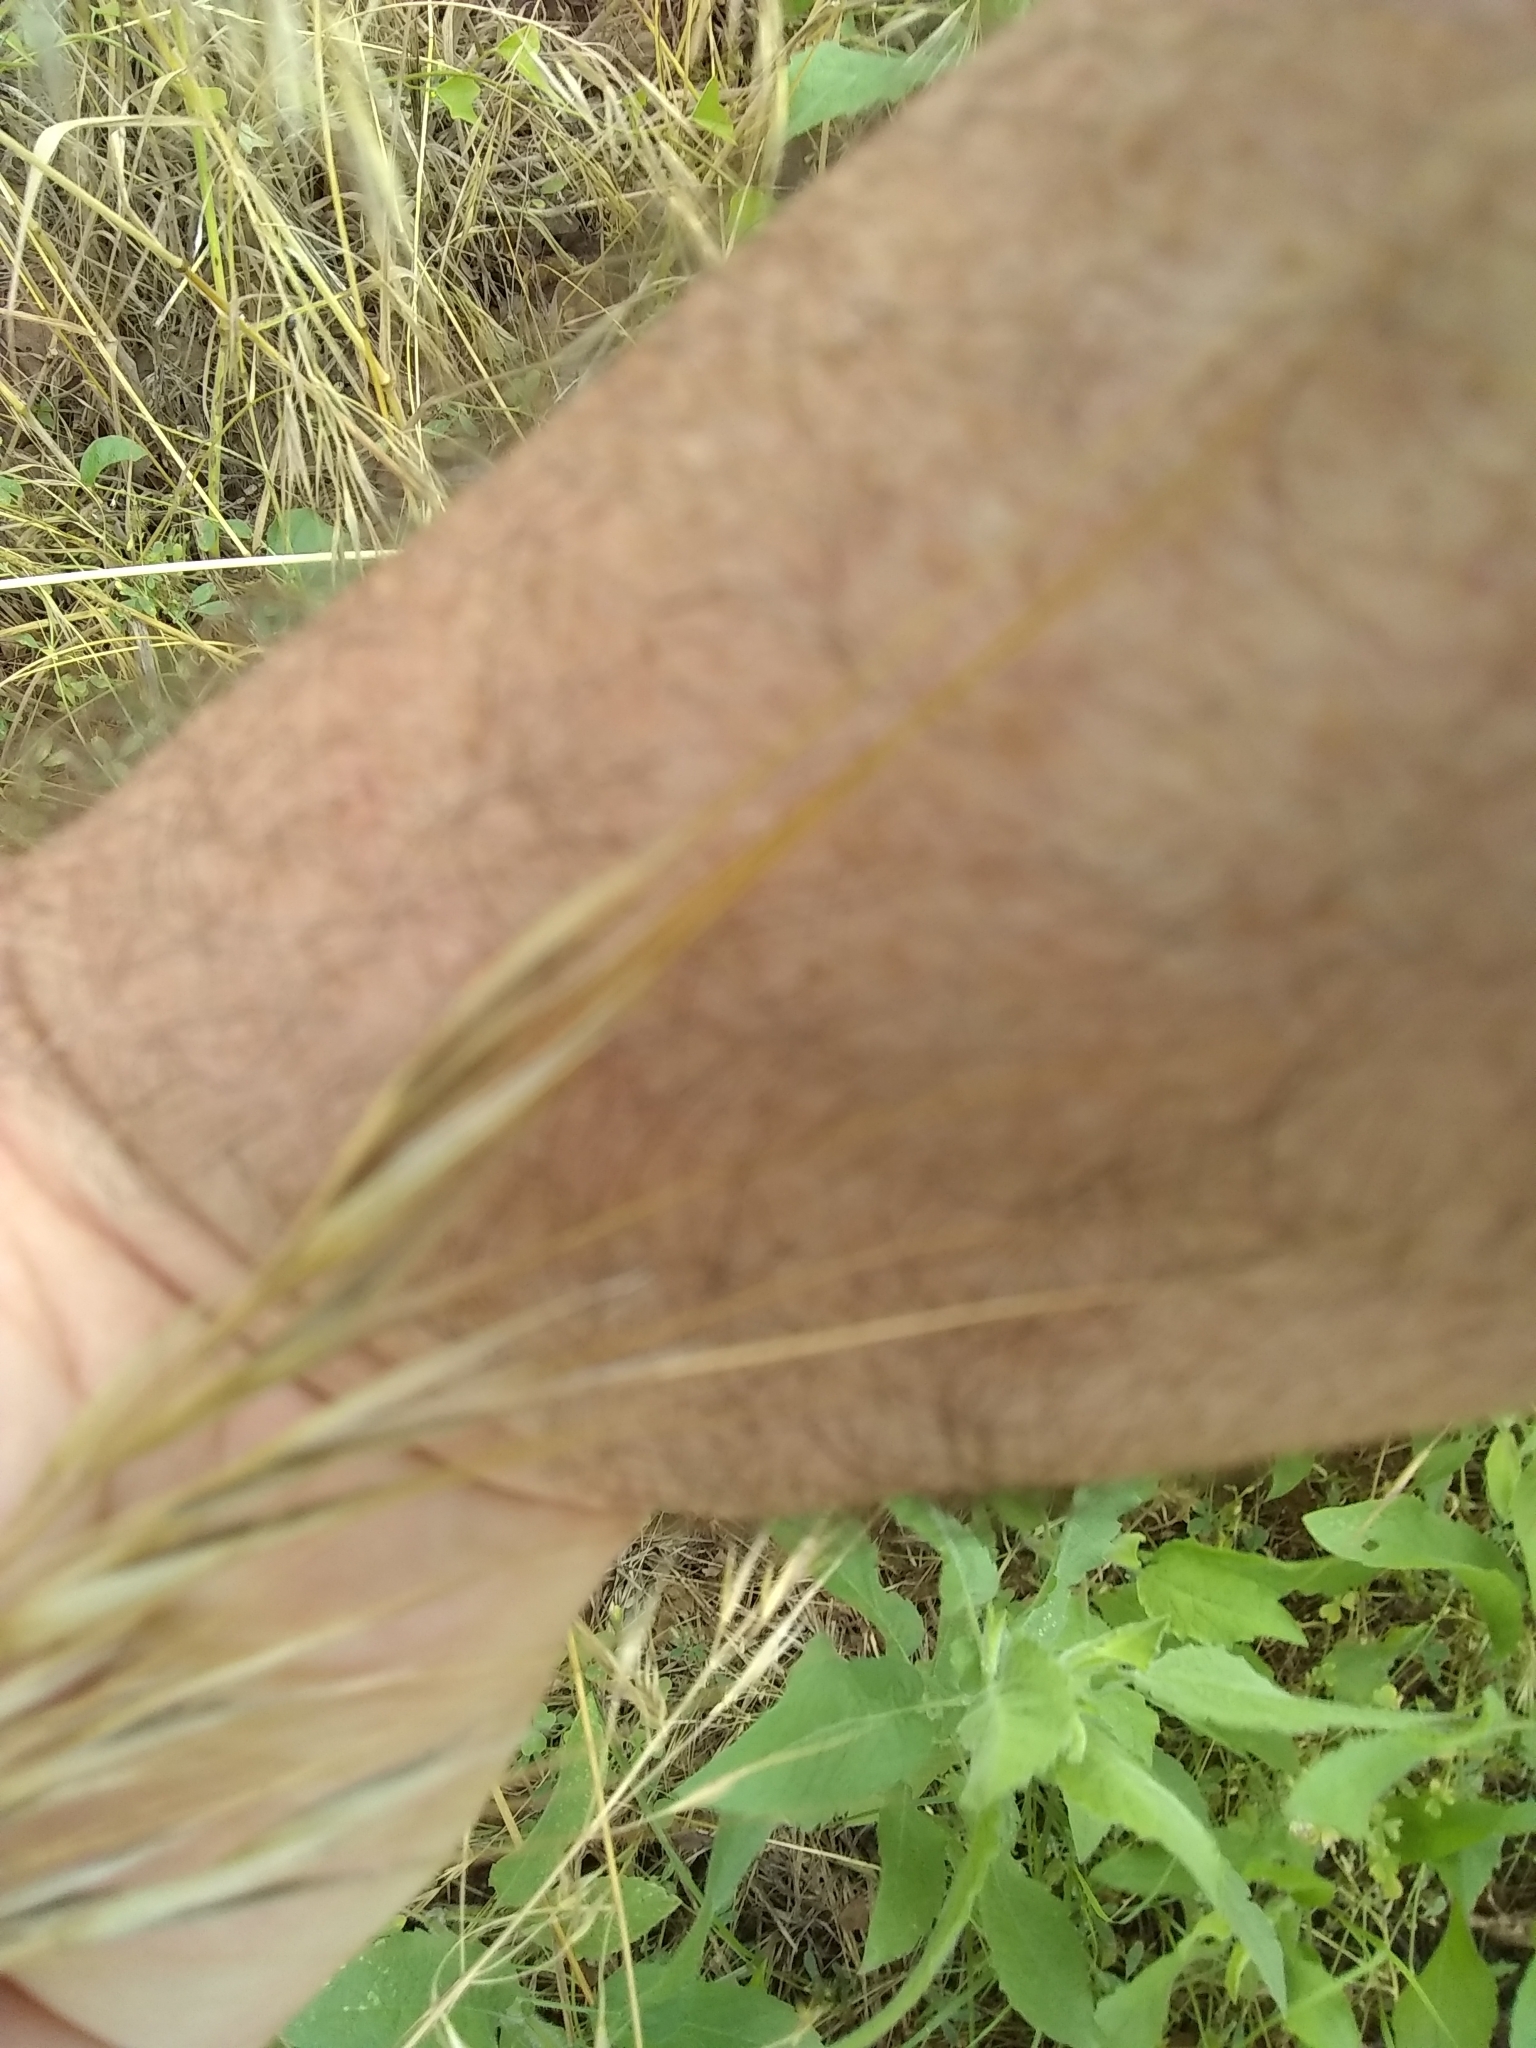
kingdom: Plantae
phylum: Tracheophyta
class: Liliopsida
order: Poales
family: Poaceae
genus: Bromus
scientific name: Bromus diandrus
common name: Ripgut brome
